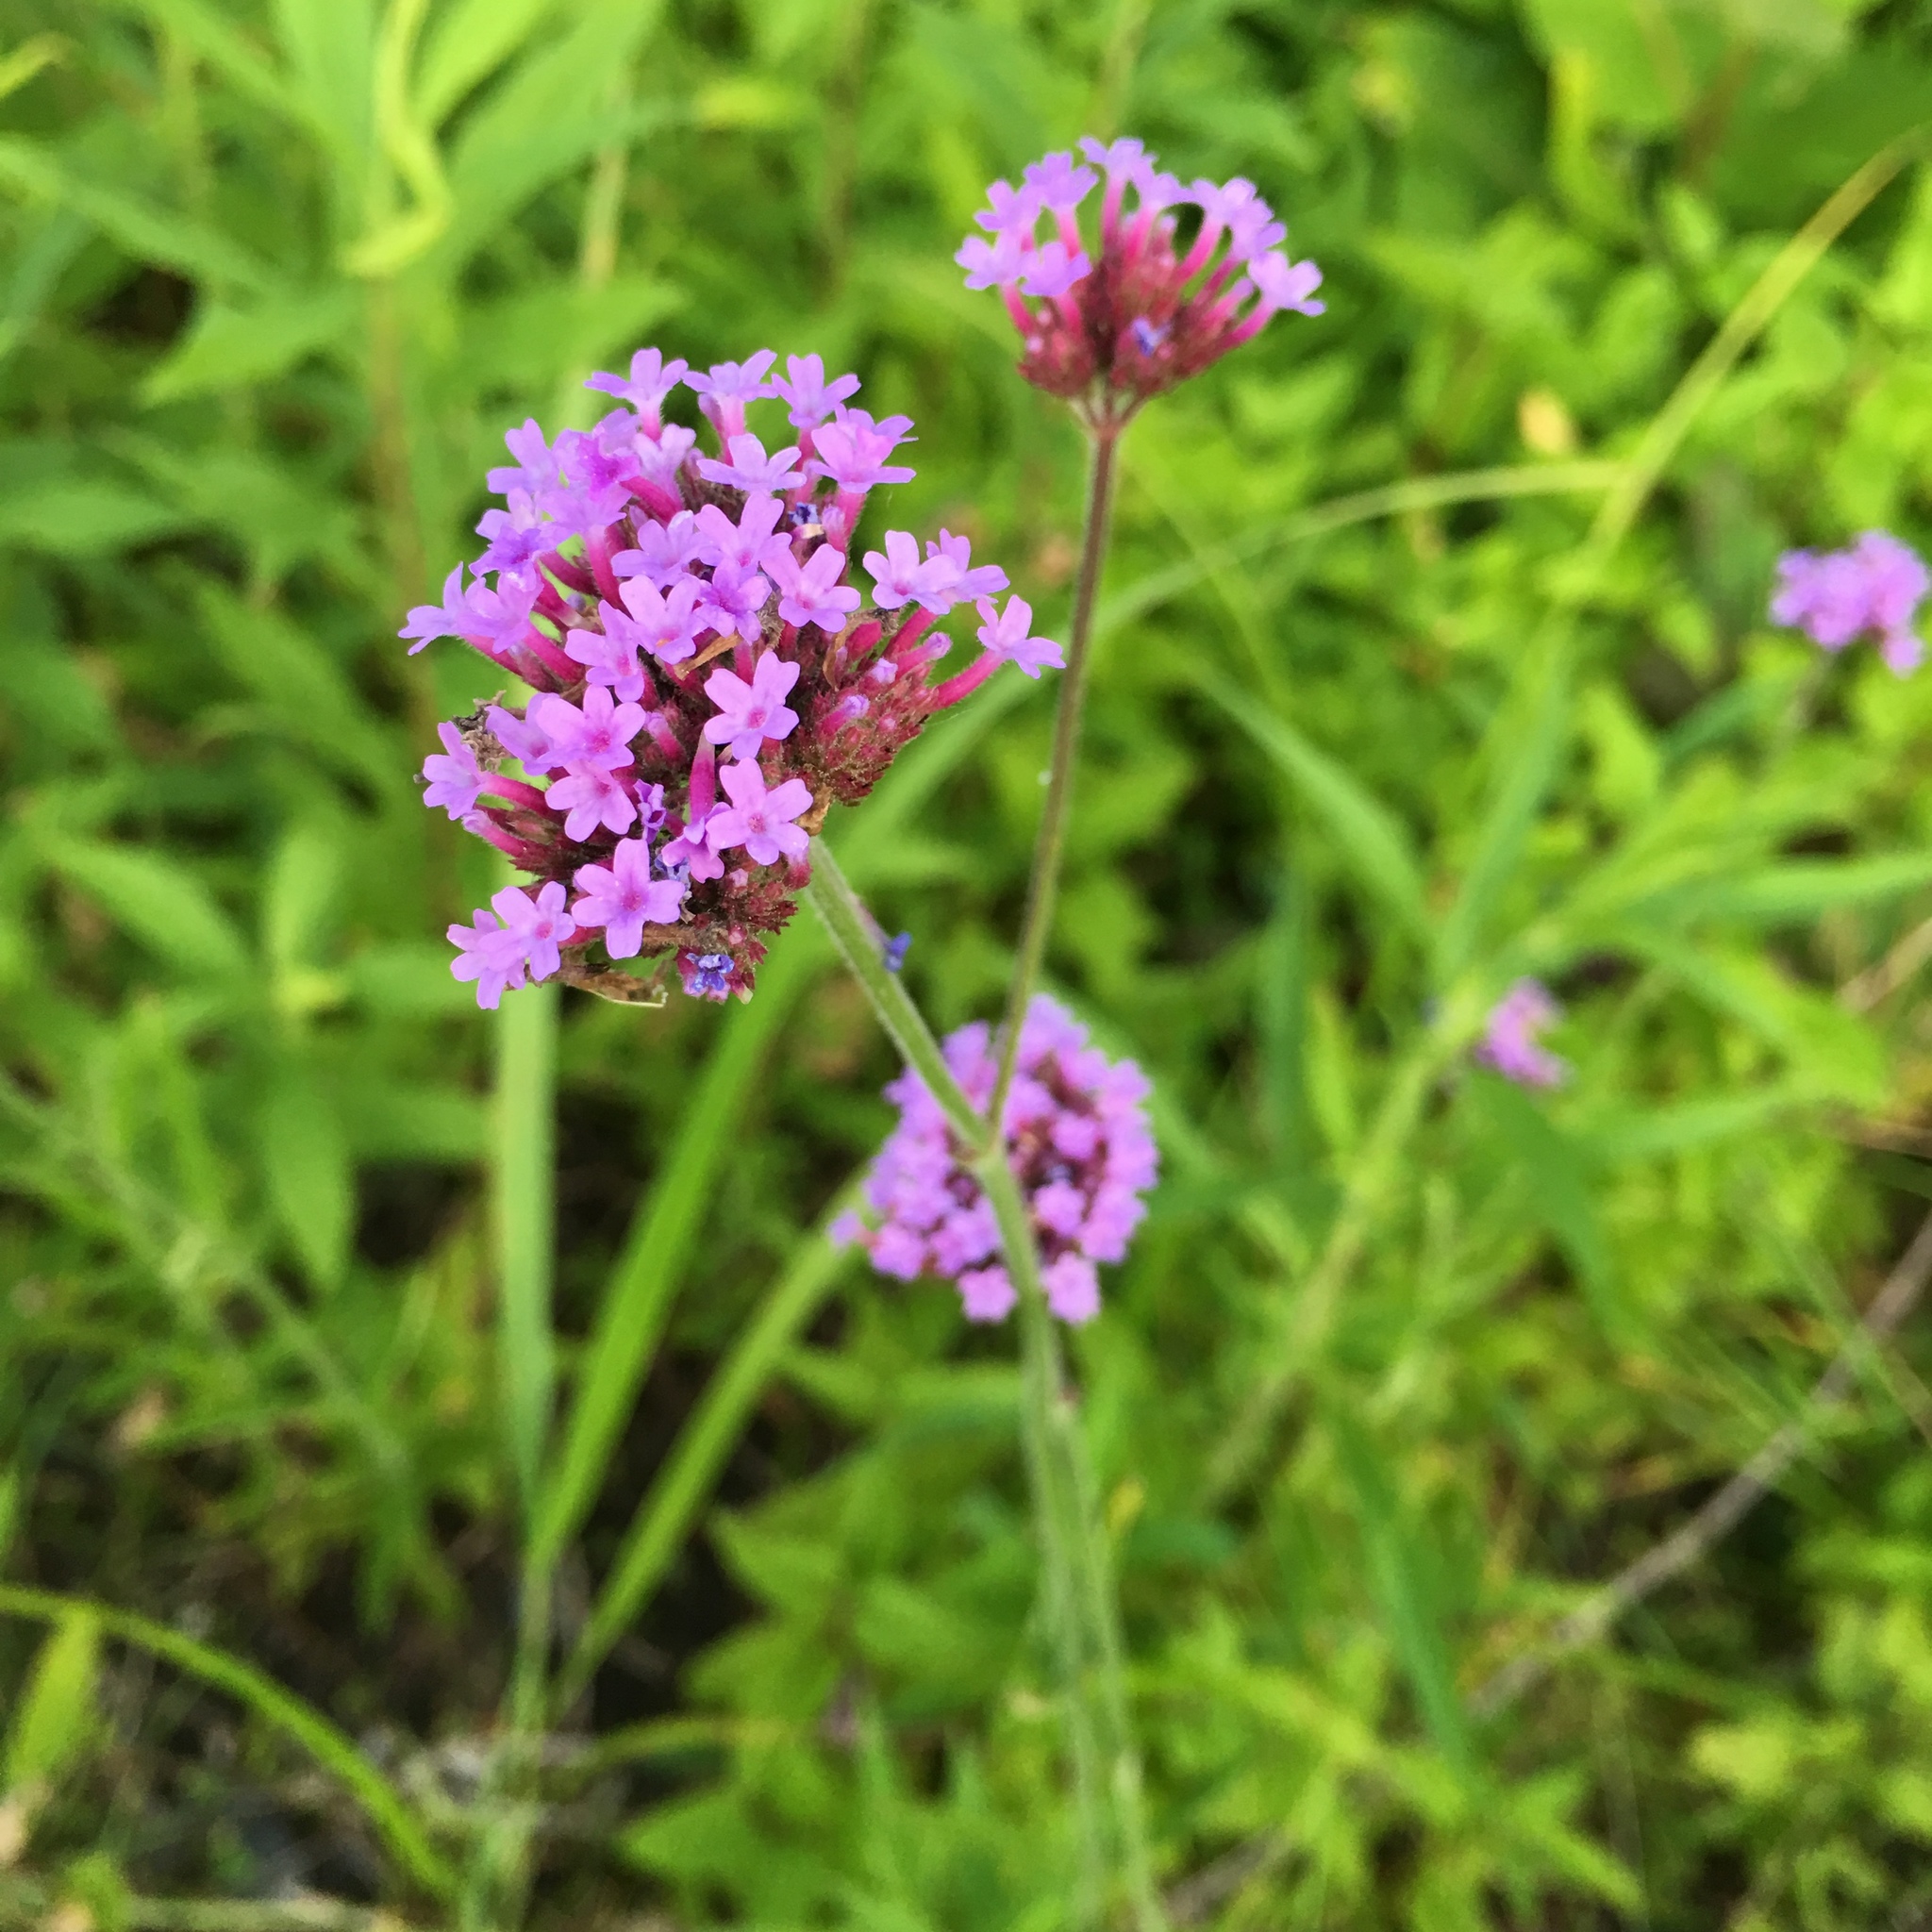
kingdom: Plantae
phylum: Tracheophyta
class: Magnoliopsida
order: Lamiales
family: Verbenaceae
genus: Verbena
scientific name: Verbena bonariensis
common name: Purpletop vervain
